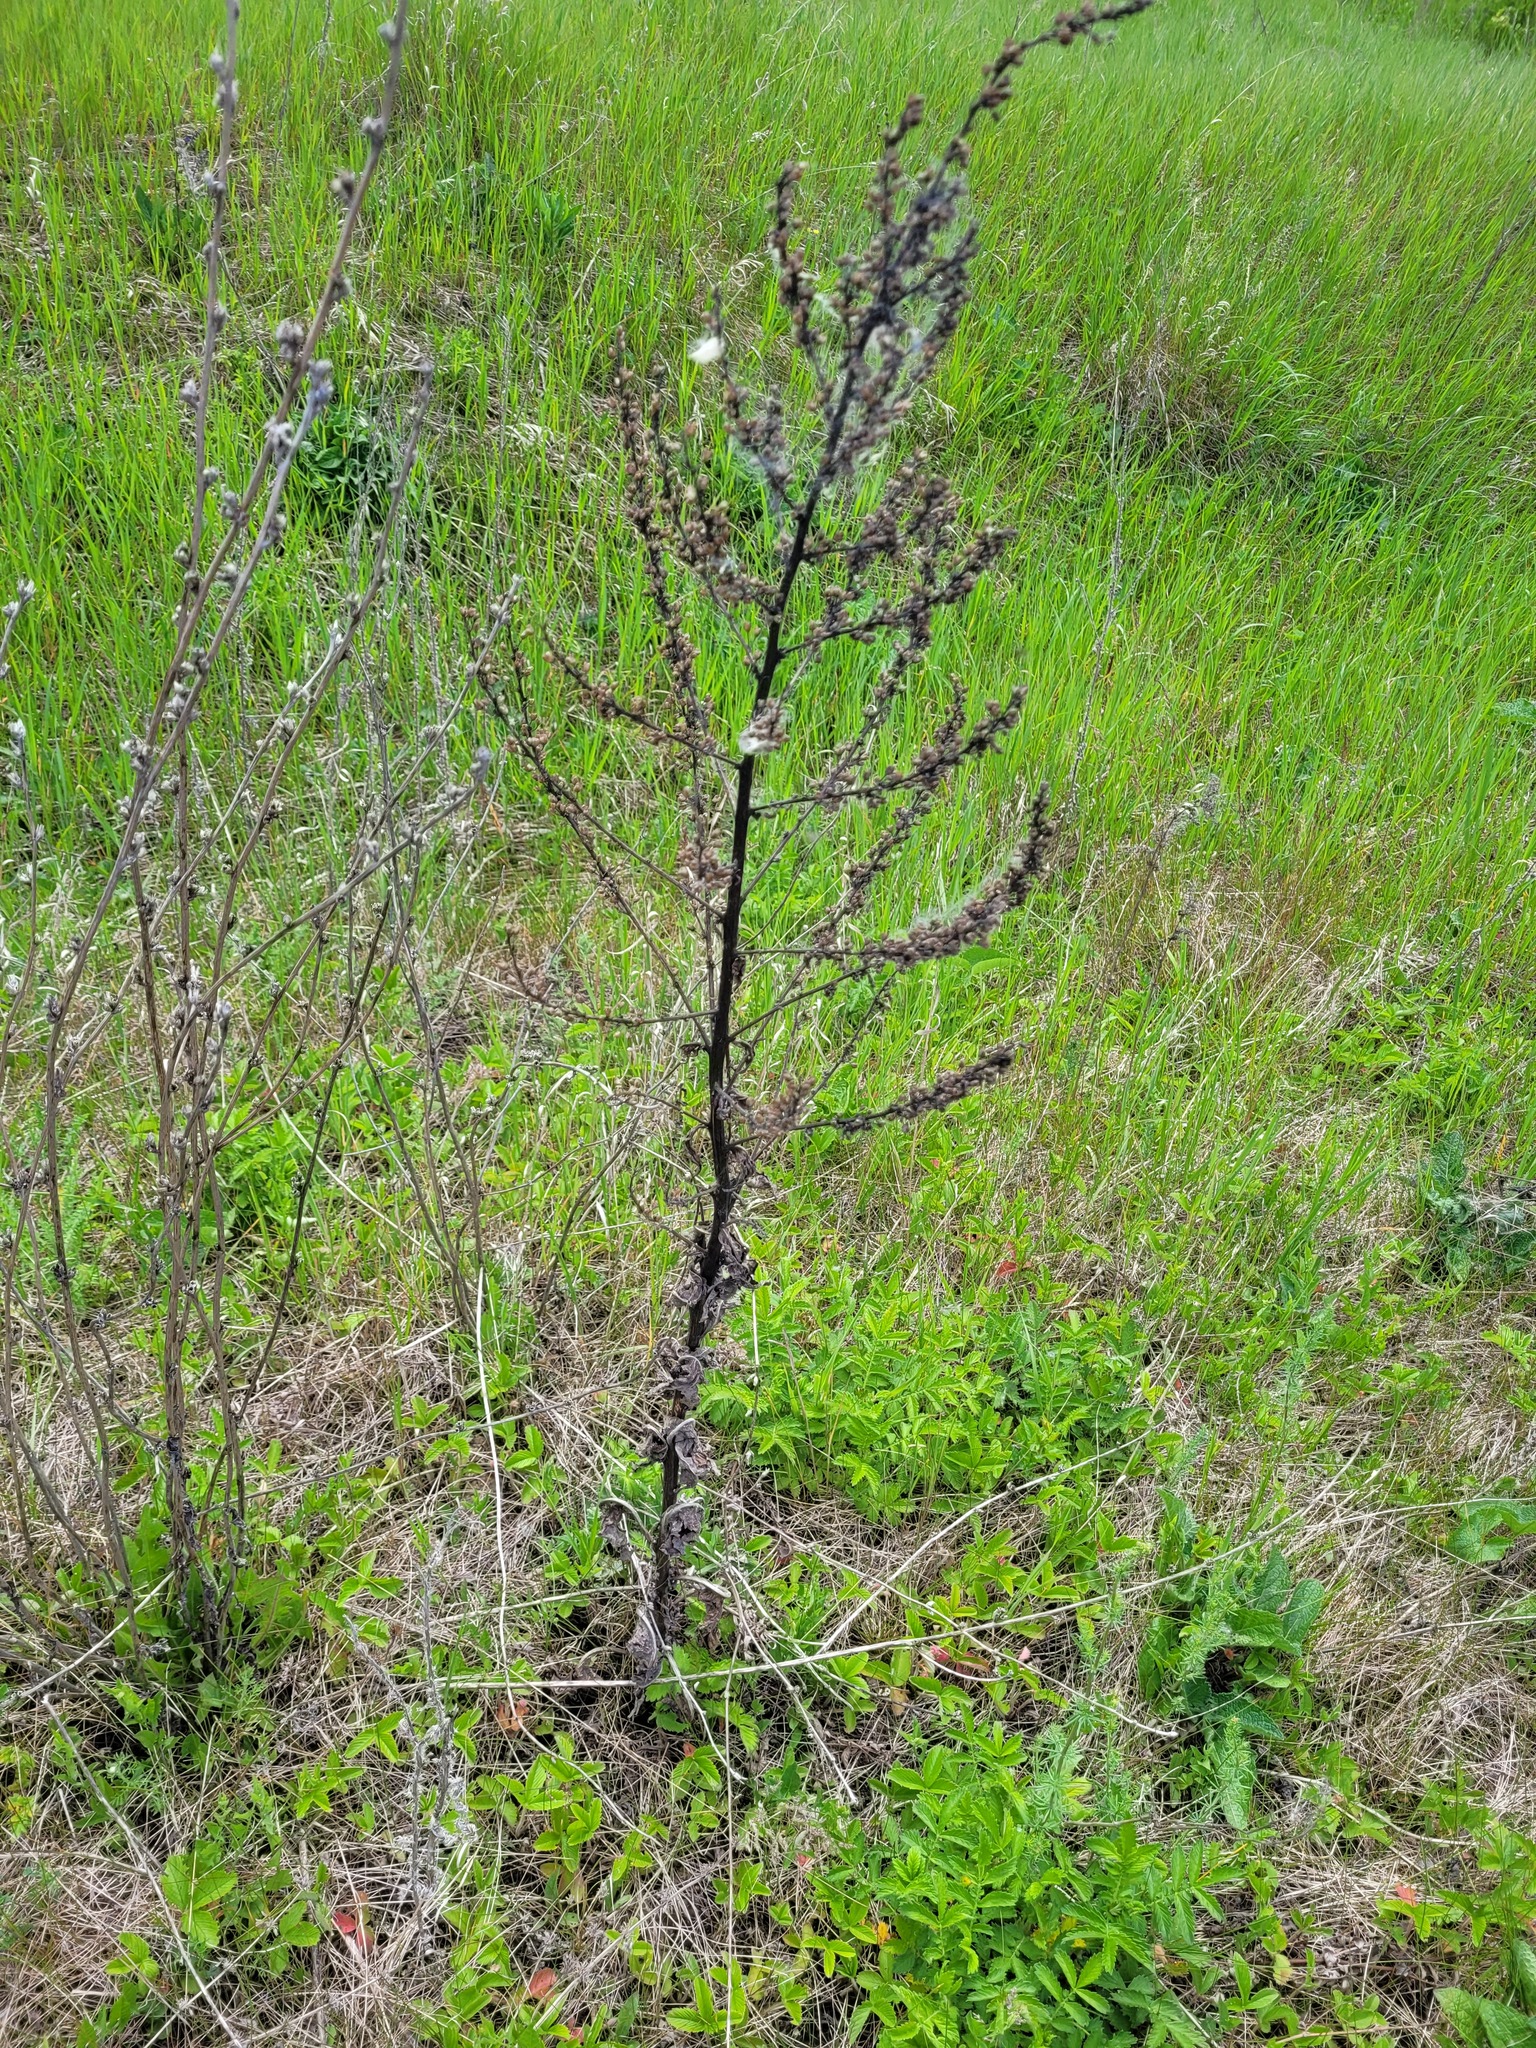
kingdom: Plantae
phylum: Tracheophyta
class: Magnoliopsida
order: Lamiales
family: Scrophulariaceae
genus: Verbascum
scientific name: Verbascum lychnitis
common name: White mullein
